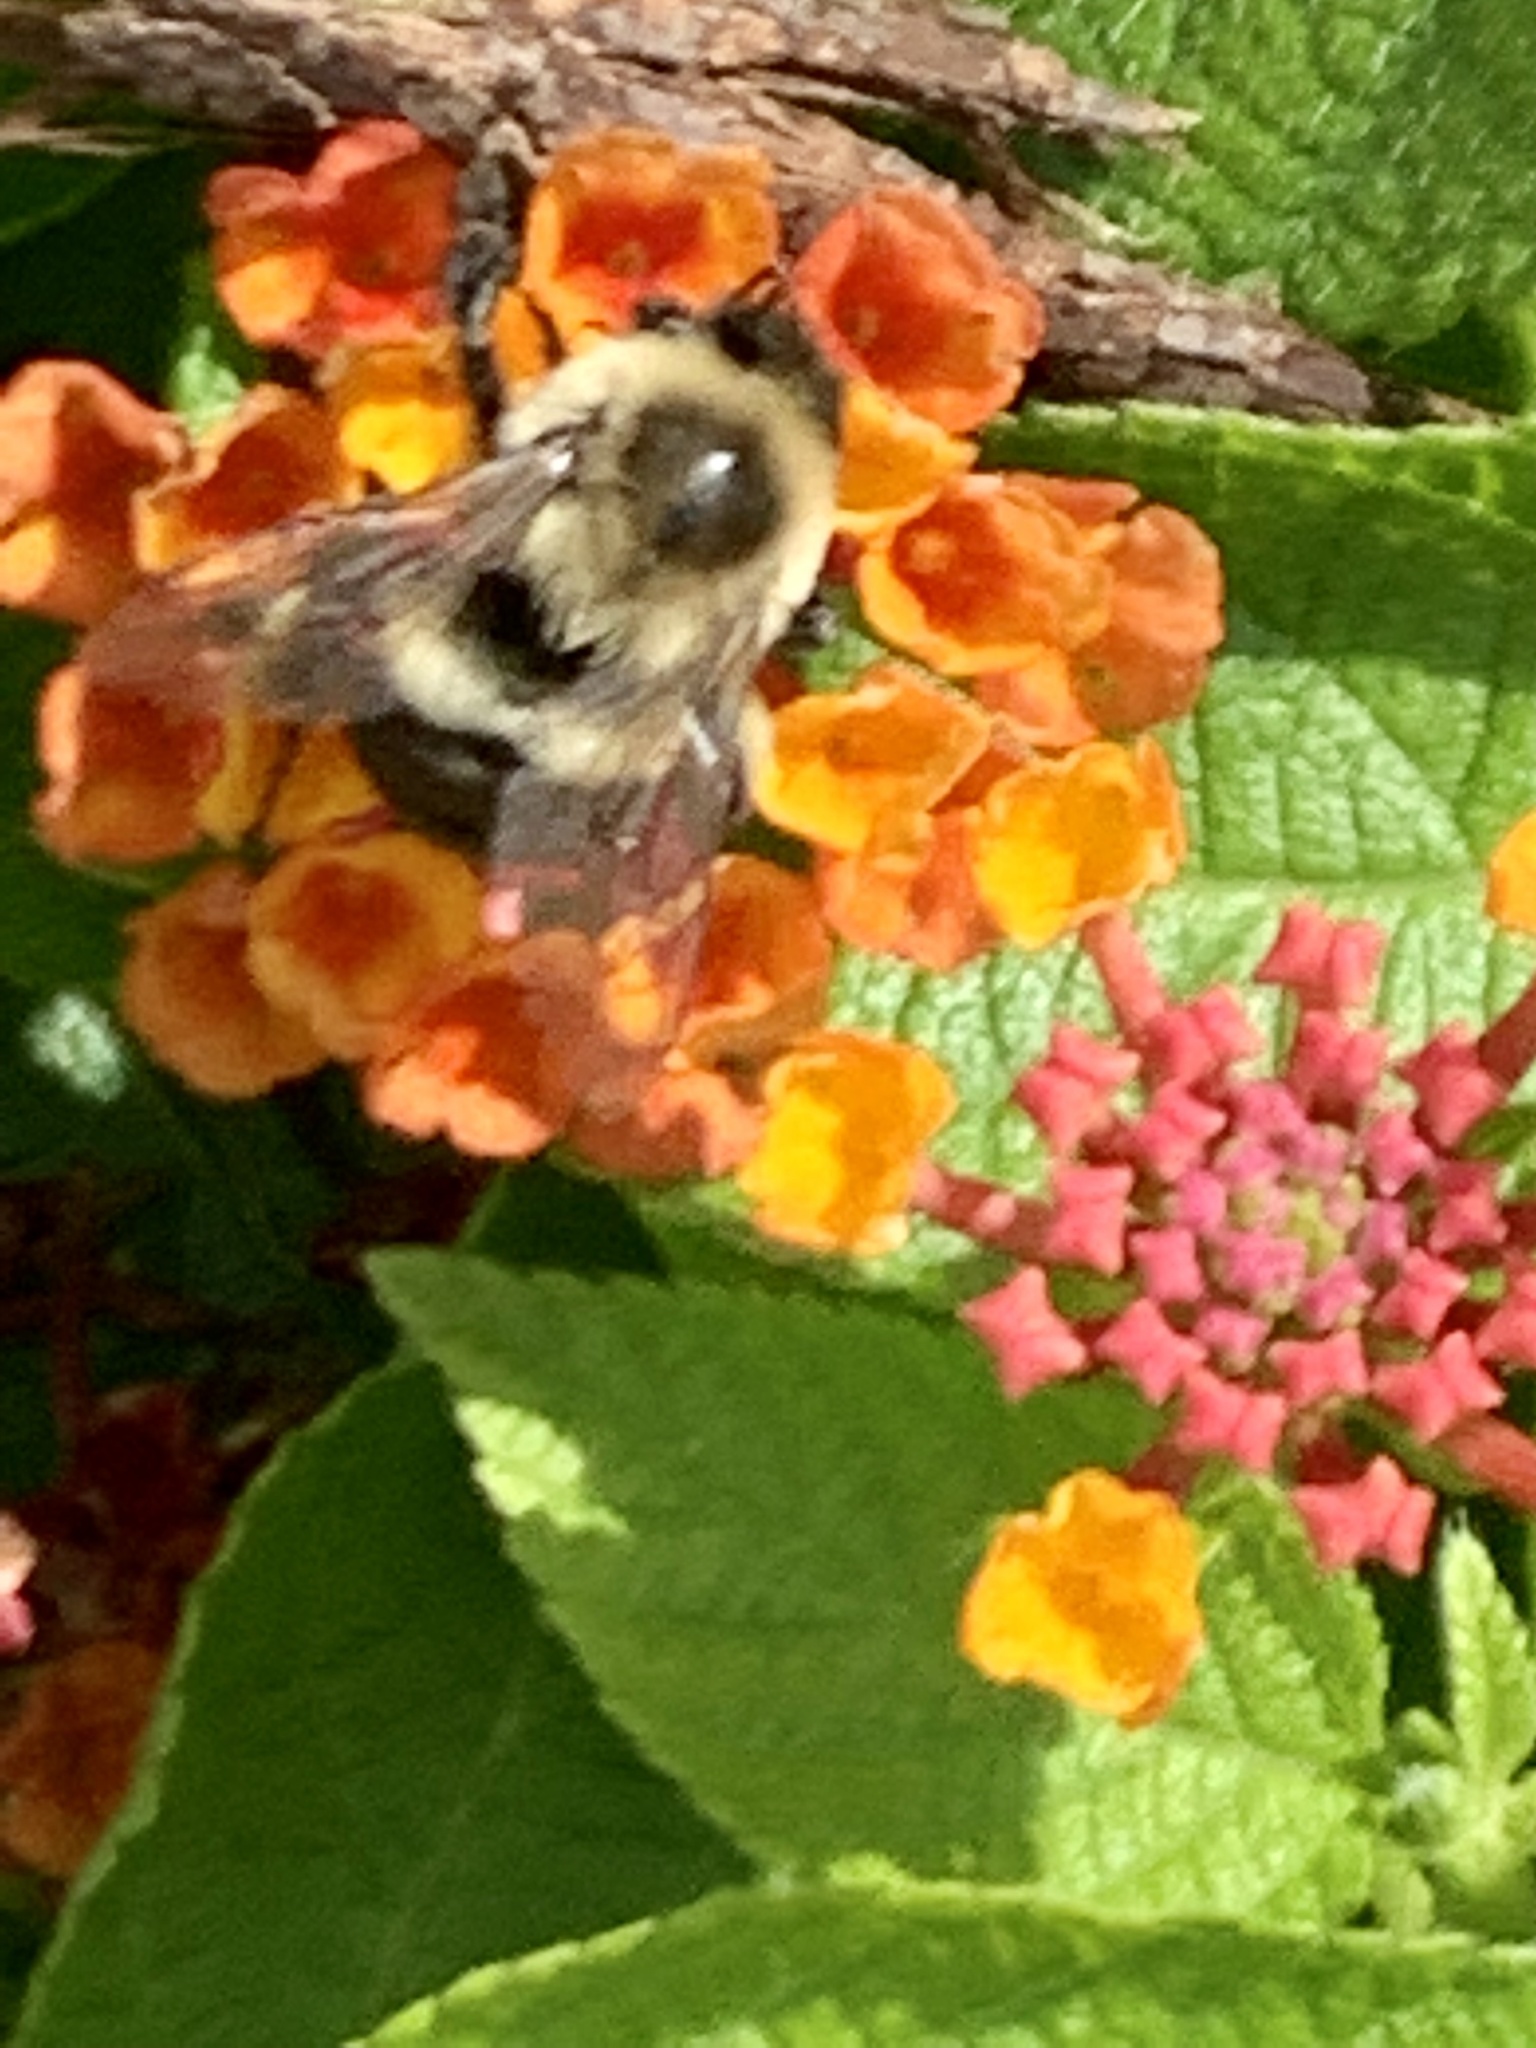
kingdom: Animalia
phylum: Arthropoda
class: Insecta
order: Hymenoptera
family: Apidae
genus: Bombus
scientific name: Bombus impatiens
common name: Common eastern bumble bee
